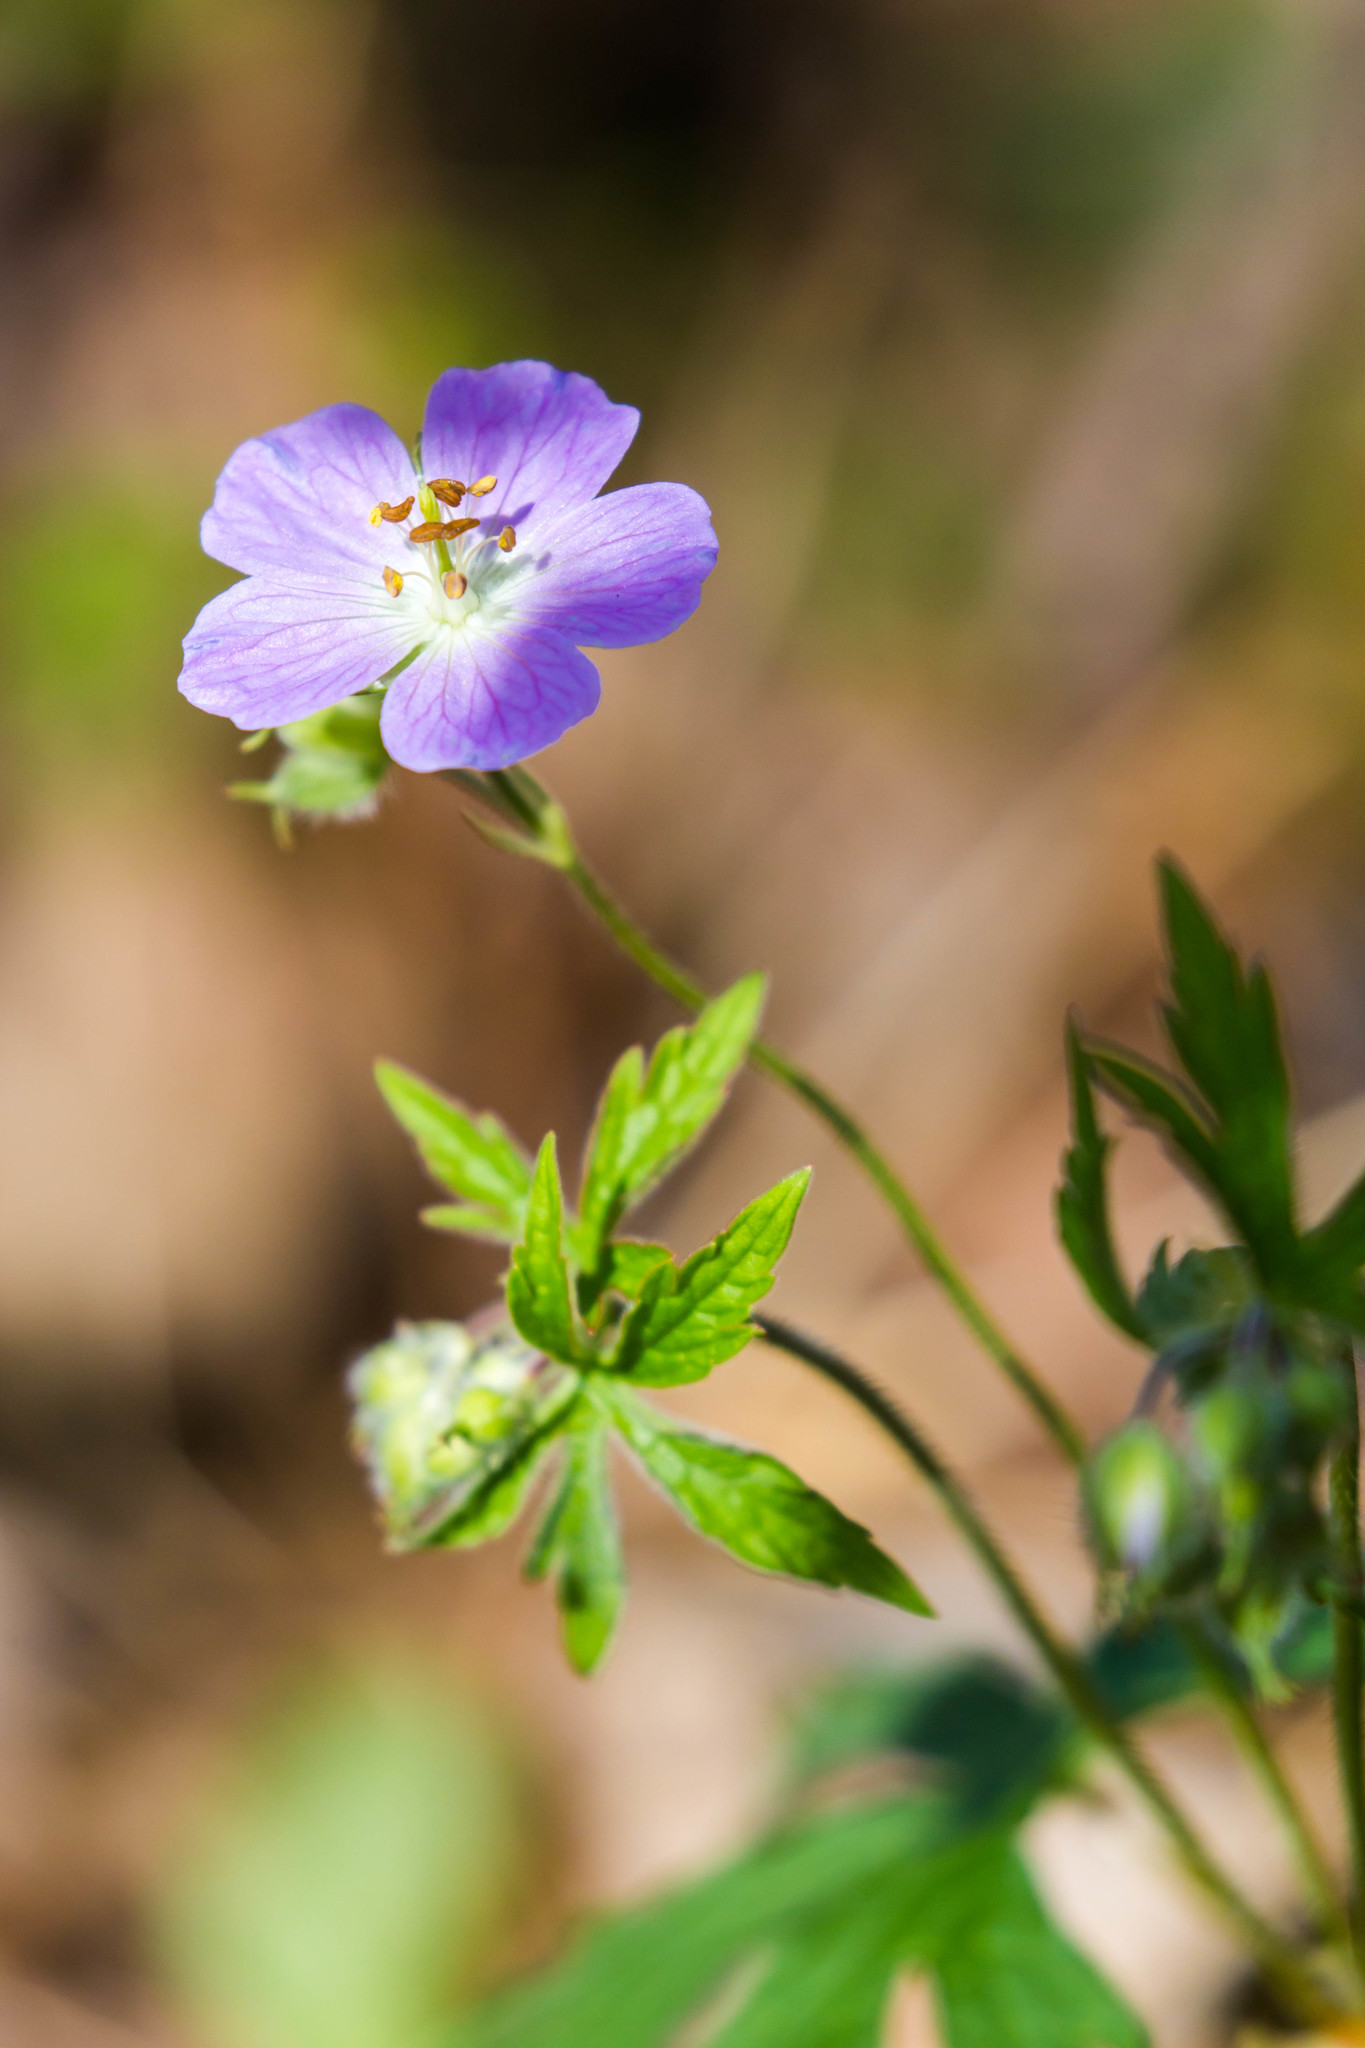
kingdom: Plantae
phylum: Tracheophyta
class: Magnoliopsida
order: Geraniales
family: Geraniaceae
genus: Geranium
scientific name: Geranium maculatum
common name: Spotted geranium
